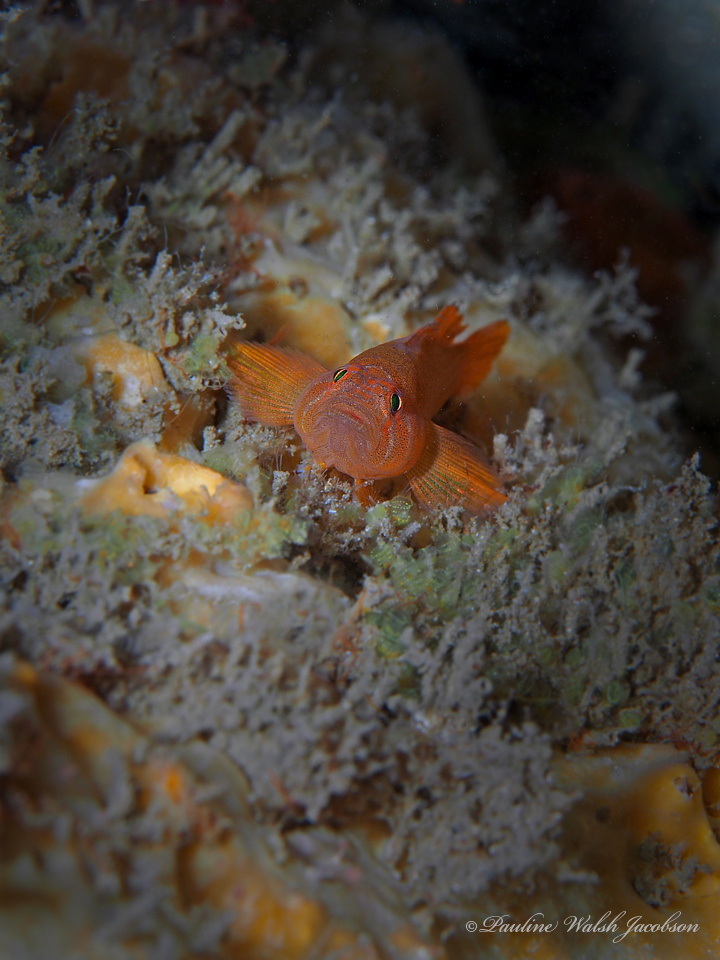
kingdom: Animalia
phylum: Chordata
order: Perciformes
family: Gobiidae
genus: Priolepis
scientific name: Priolepis hipoliti
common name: Rusty goby
